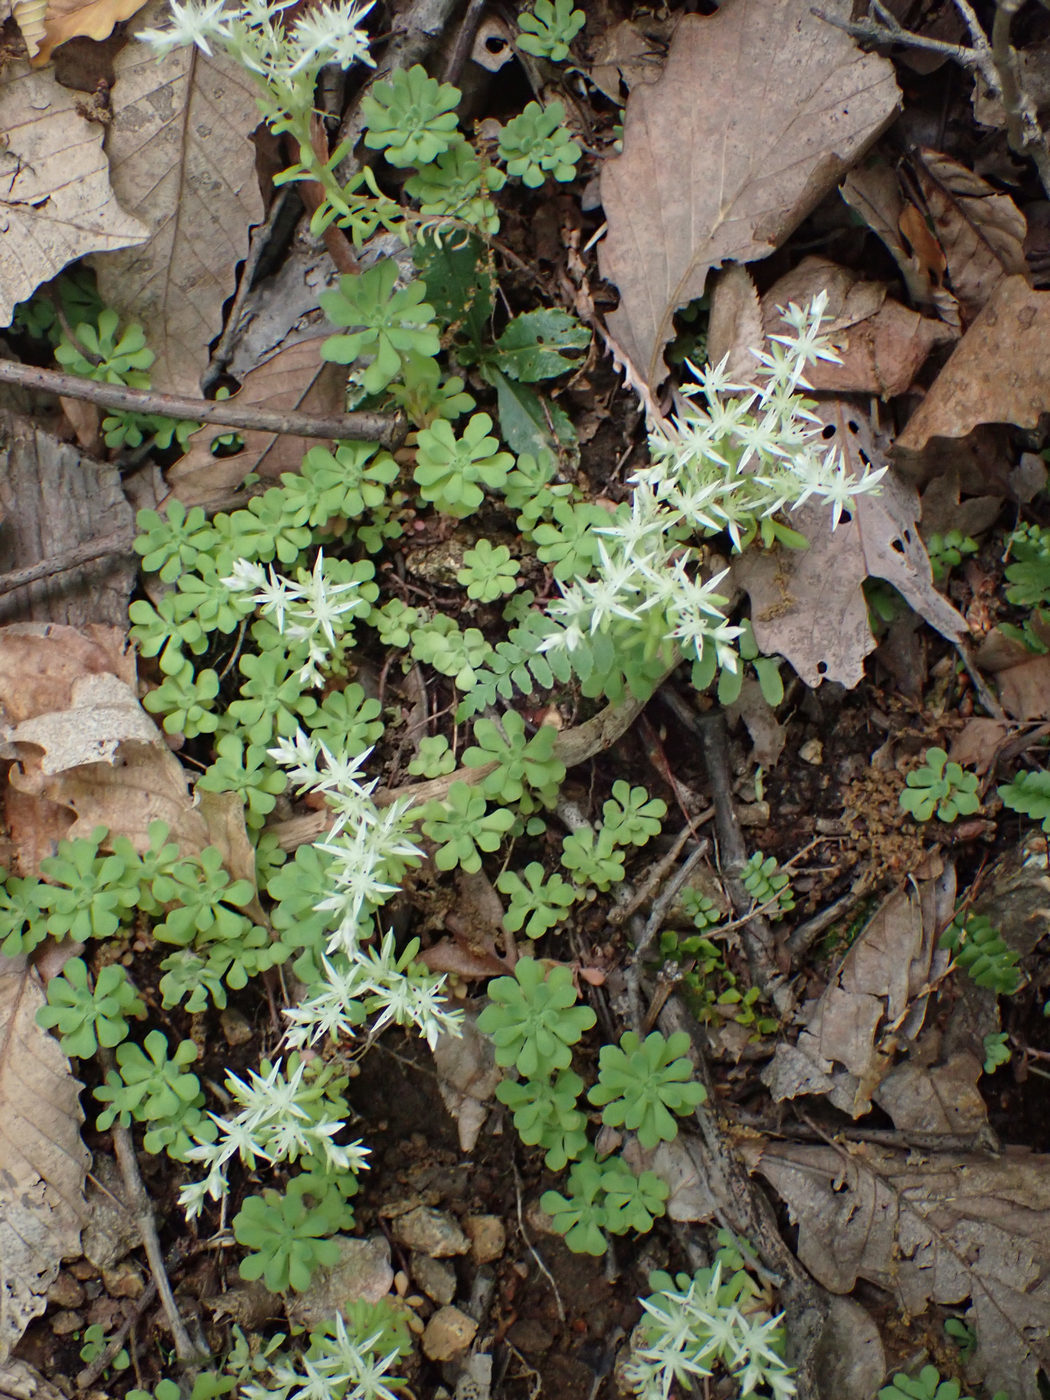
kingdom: Plantae
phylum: Tracheophyta
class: Magnoliopsida
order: Saxifragales
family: Crassulaceae
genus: Sedum
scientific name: Sedum glaucophyllum
